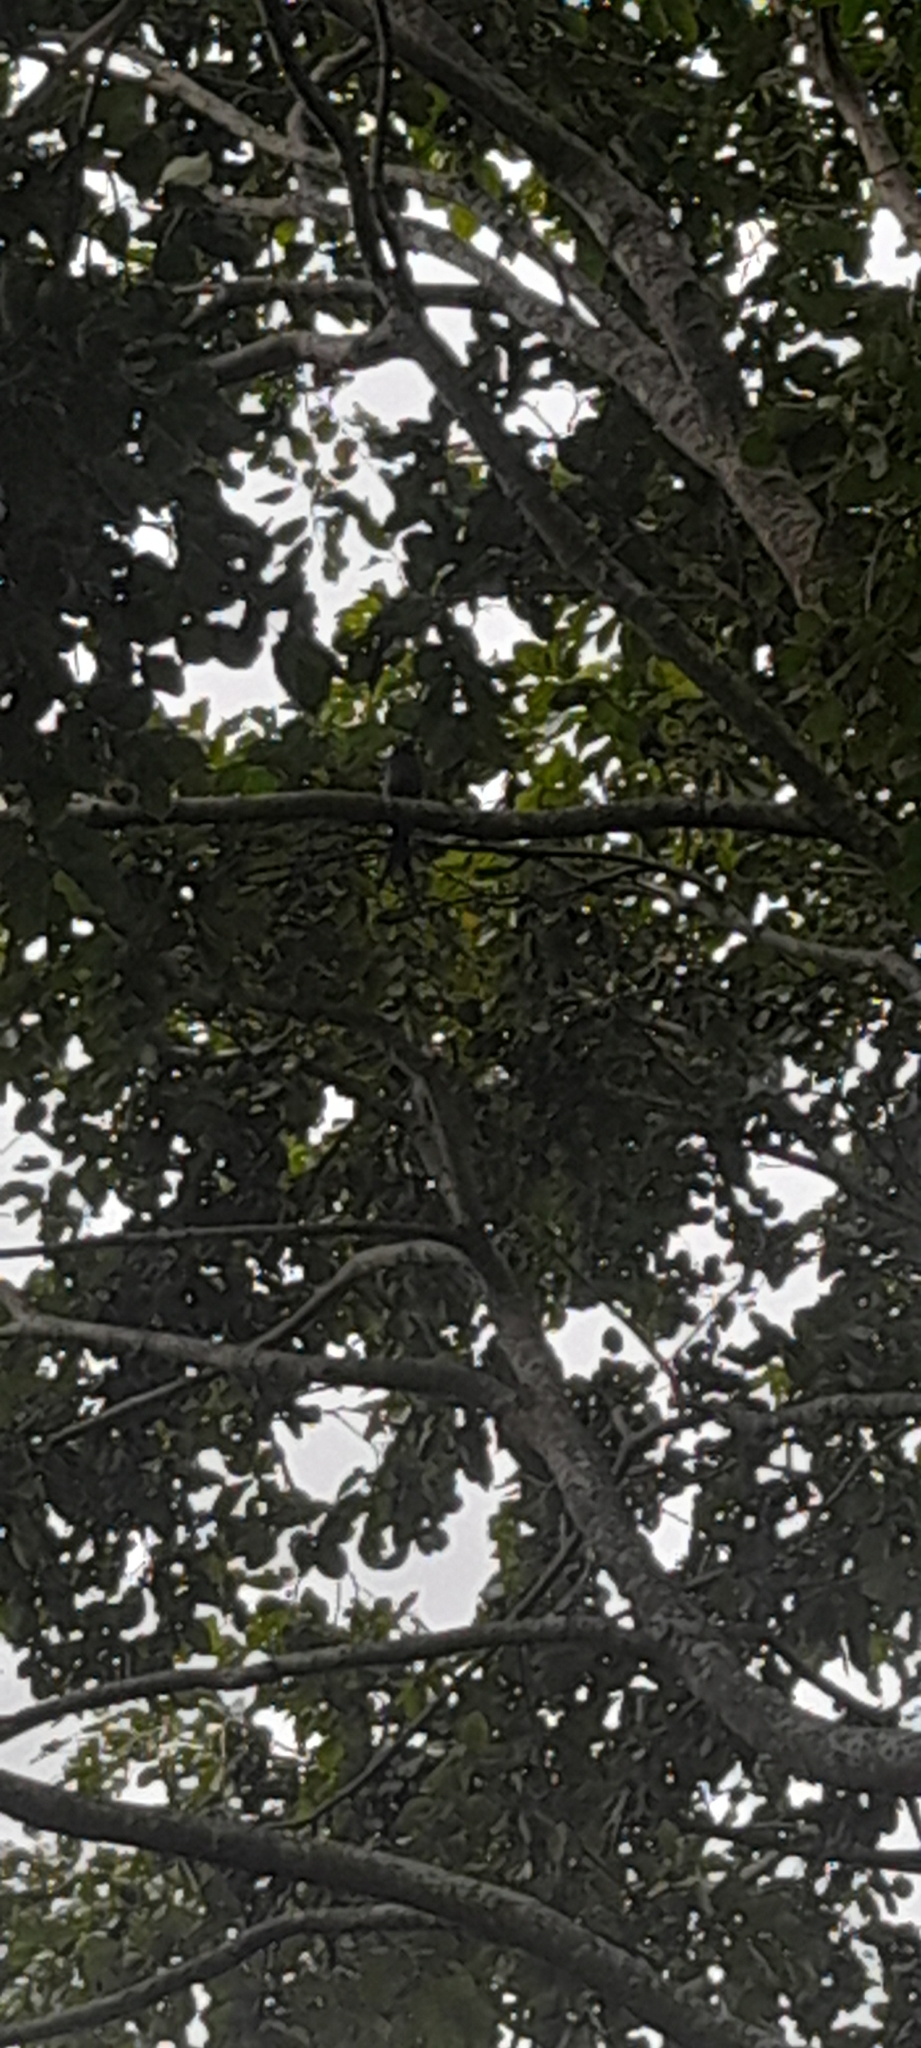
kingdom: Animalia
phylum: Chordata
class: Aves
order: Passeriformes
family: Dicruridae
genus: Dicrurus
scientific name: Dicrurus leucophaeus
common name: Ashy drongo
